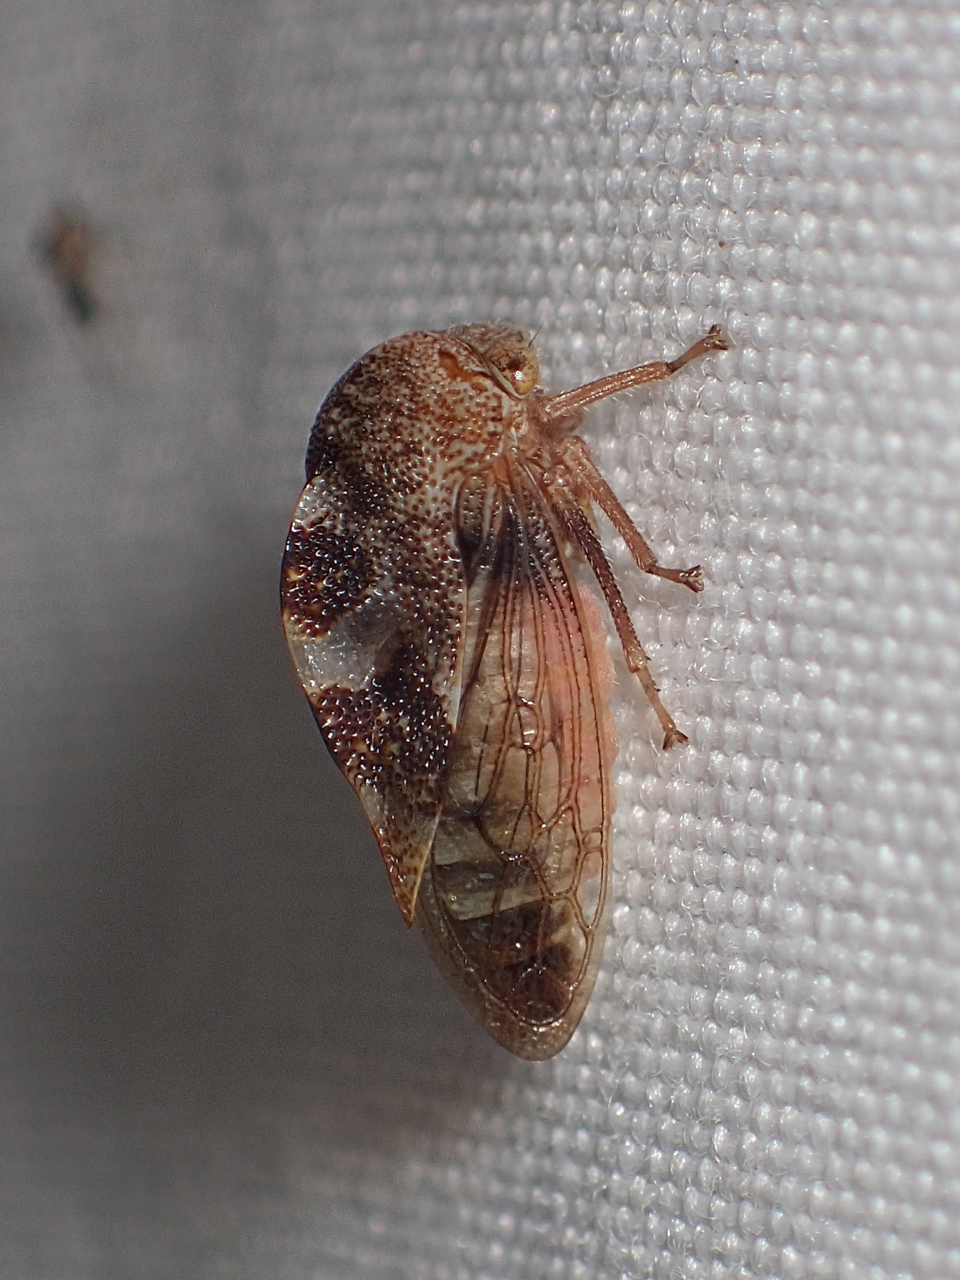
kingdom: Animalia
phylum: Arthropoda
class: Insecta
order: Hemiptera
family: Membracidae
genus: Cyrtolobus
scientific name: Cyrtolobus tuberosa
